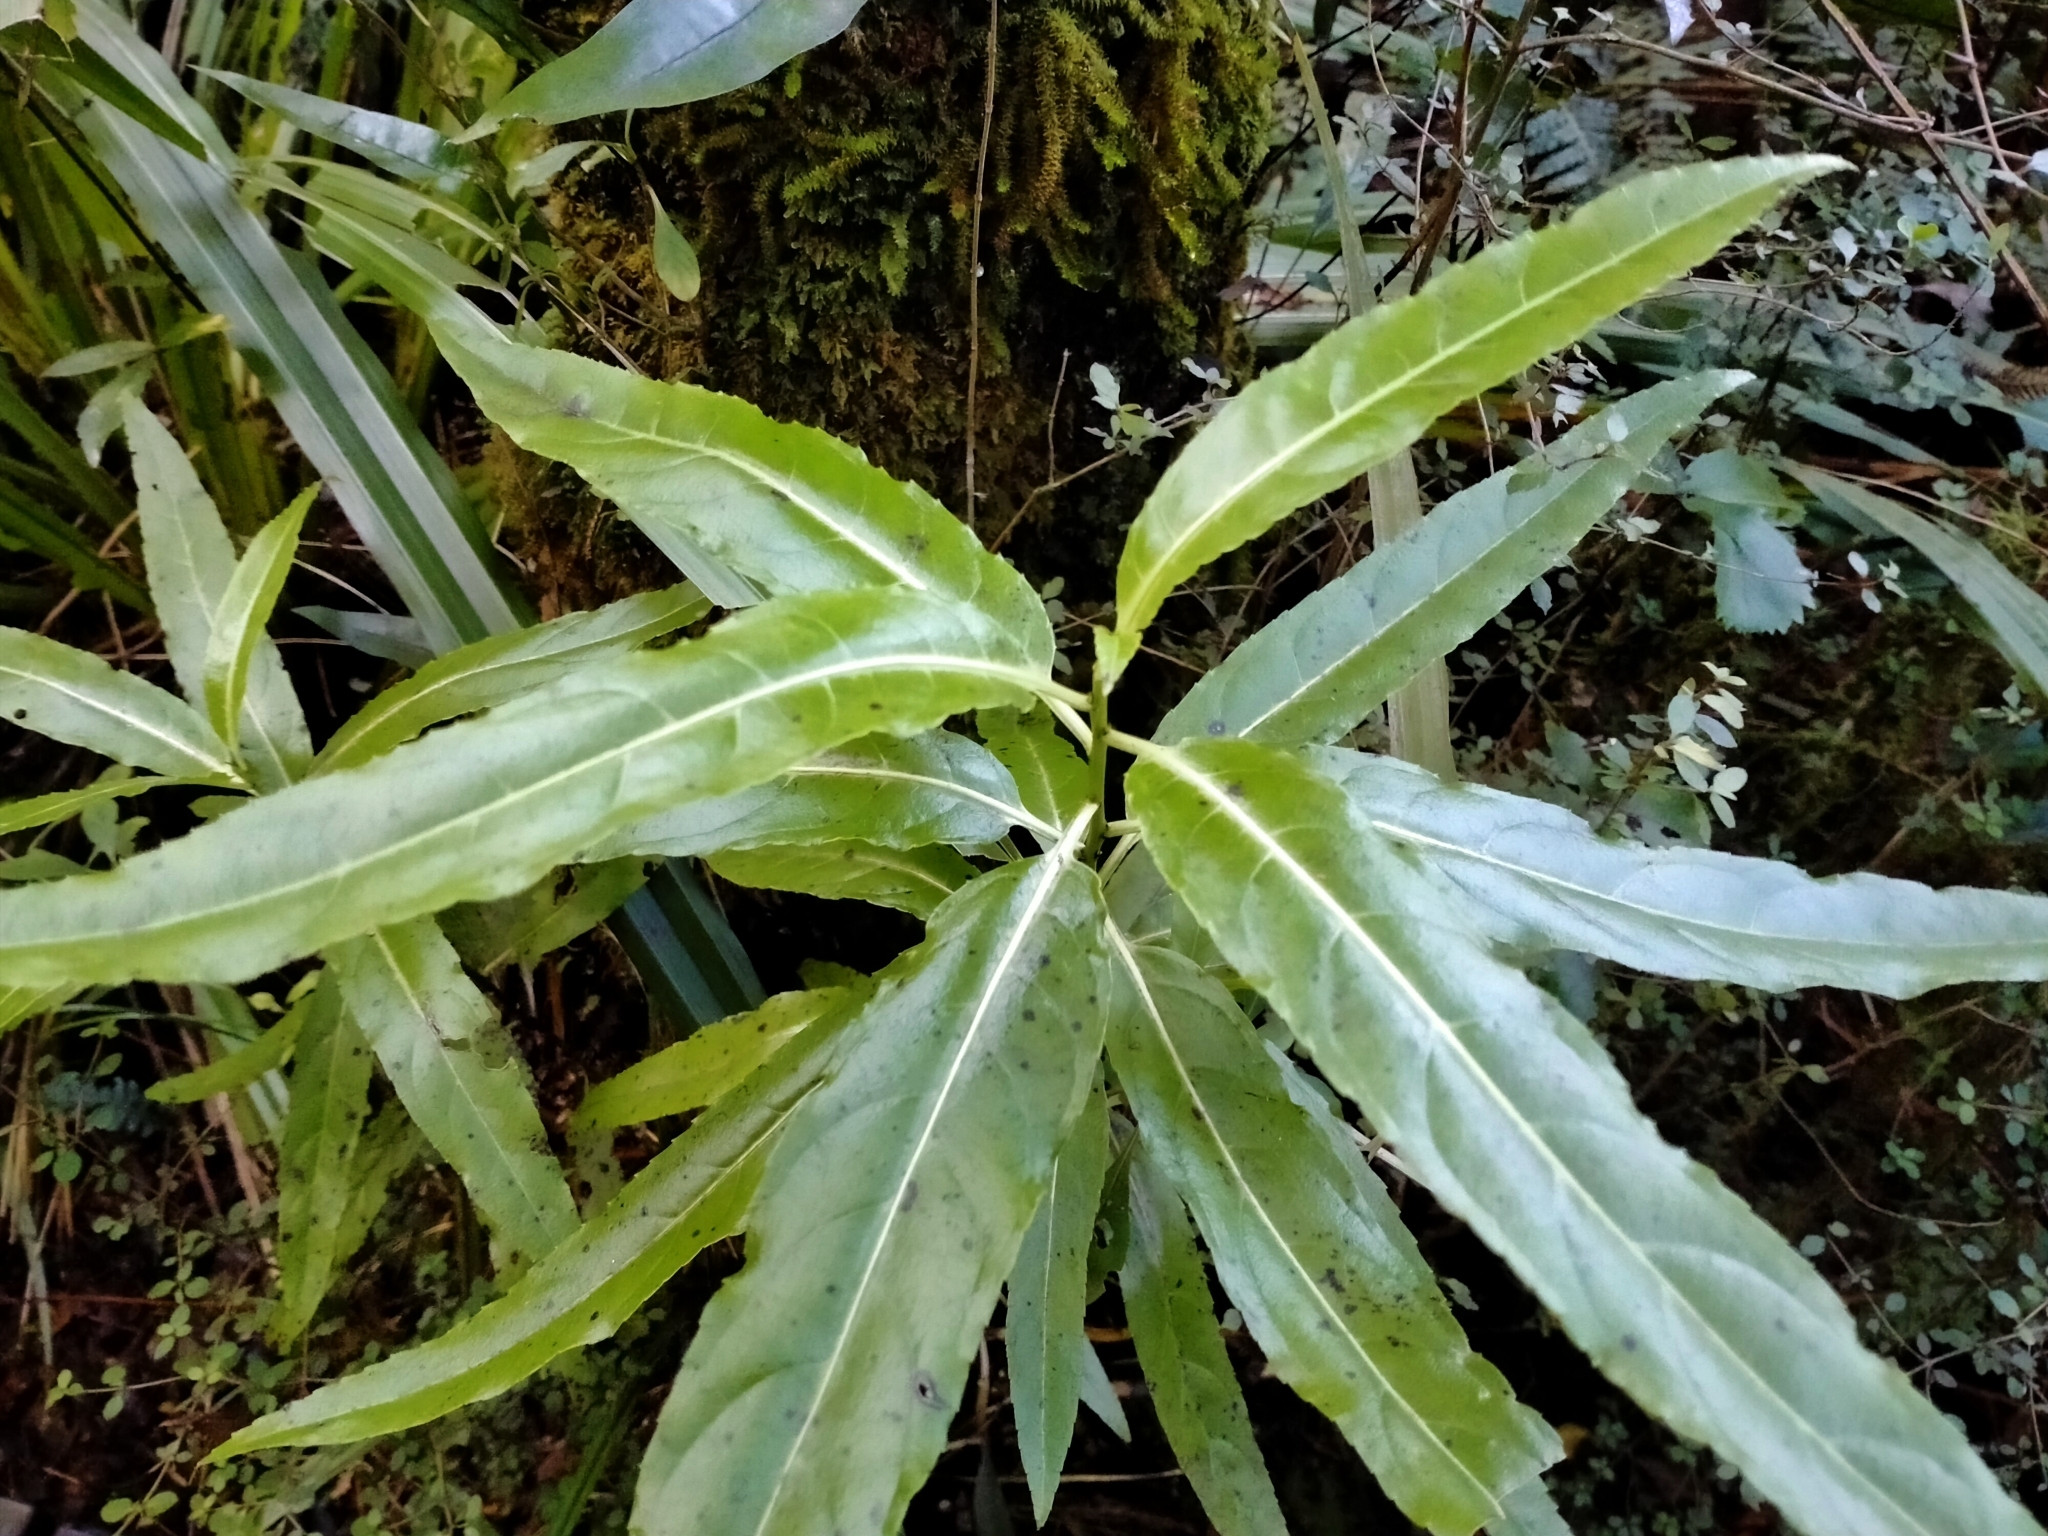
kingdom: Plantae
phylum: Tracheophyta
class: Magnoliopsida
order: Malpighiales
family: Violaceae
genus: Melicytus
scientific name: Melicytus lanceolatus
